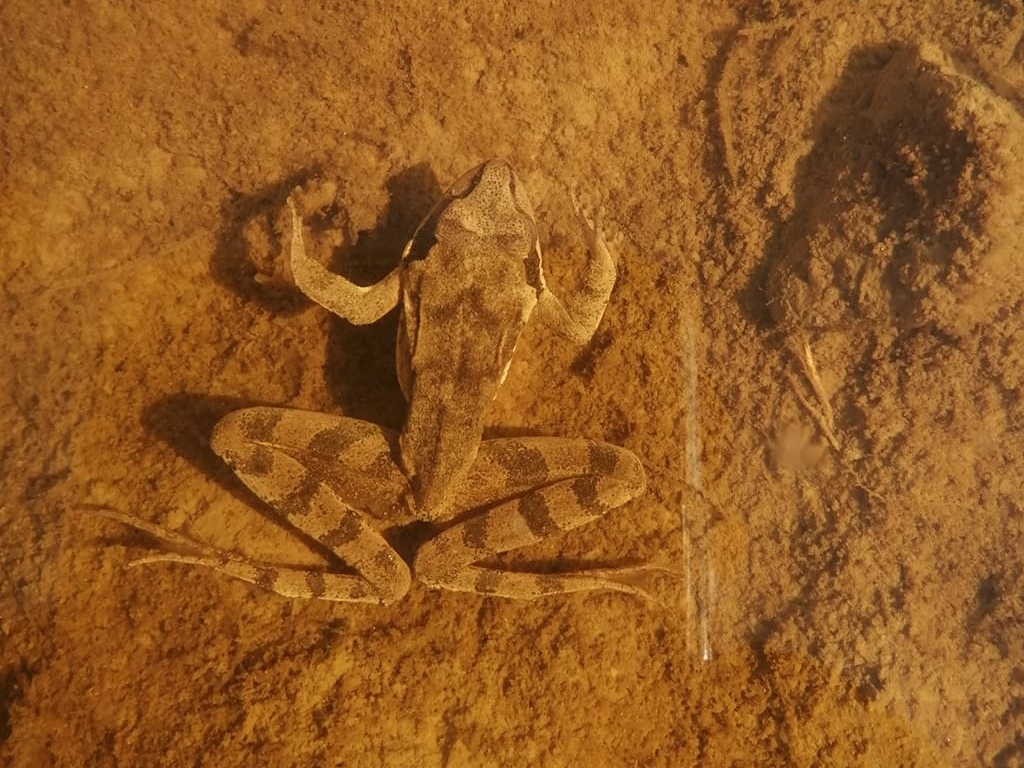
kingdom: Animalia
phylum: Chordata
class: Amphibia
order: Anura
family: Ranidae
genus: Rana
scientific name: Rana dalmatina
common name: Agile frog
